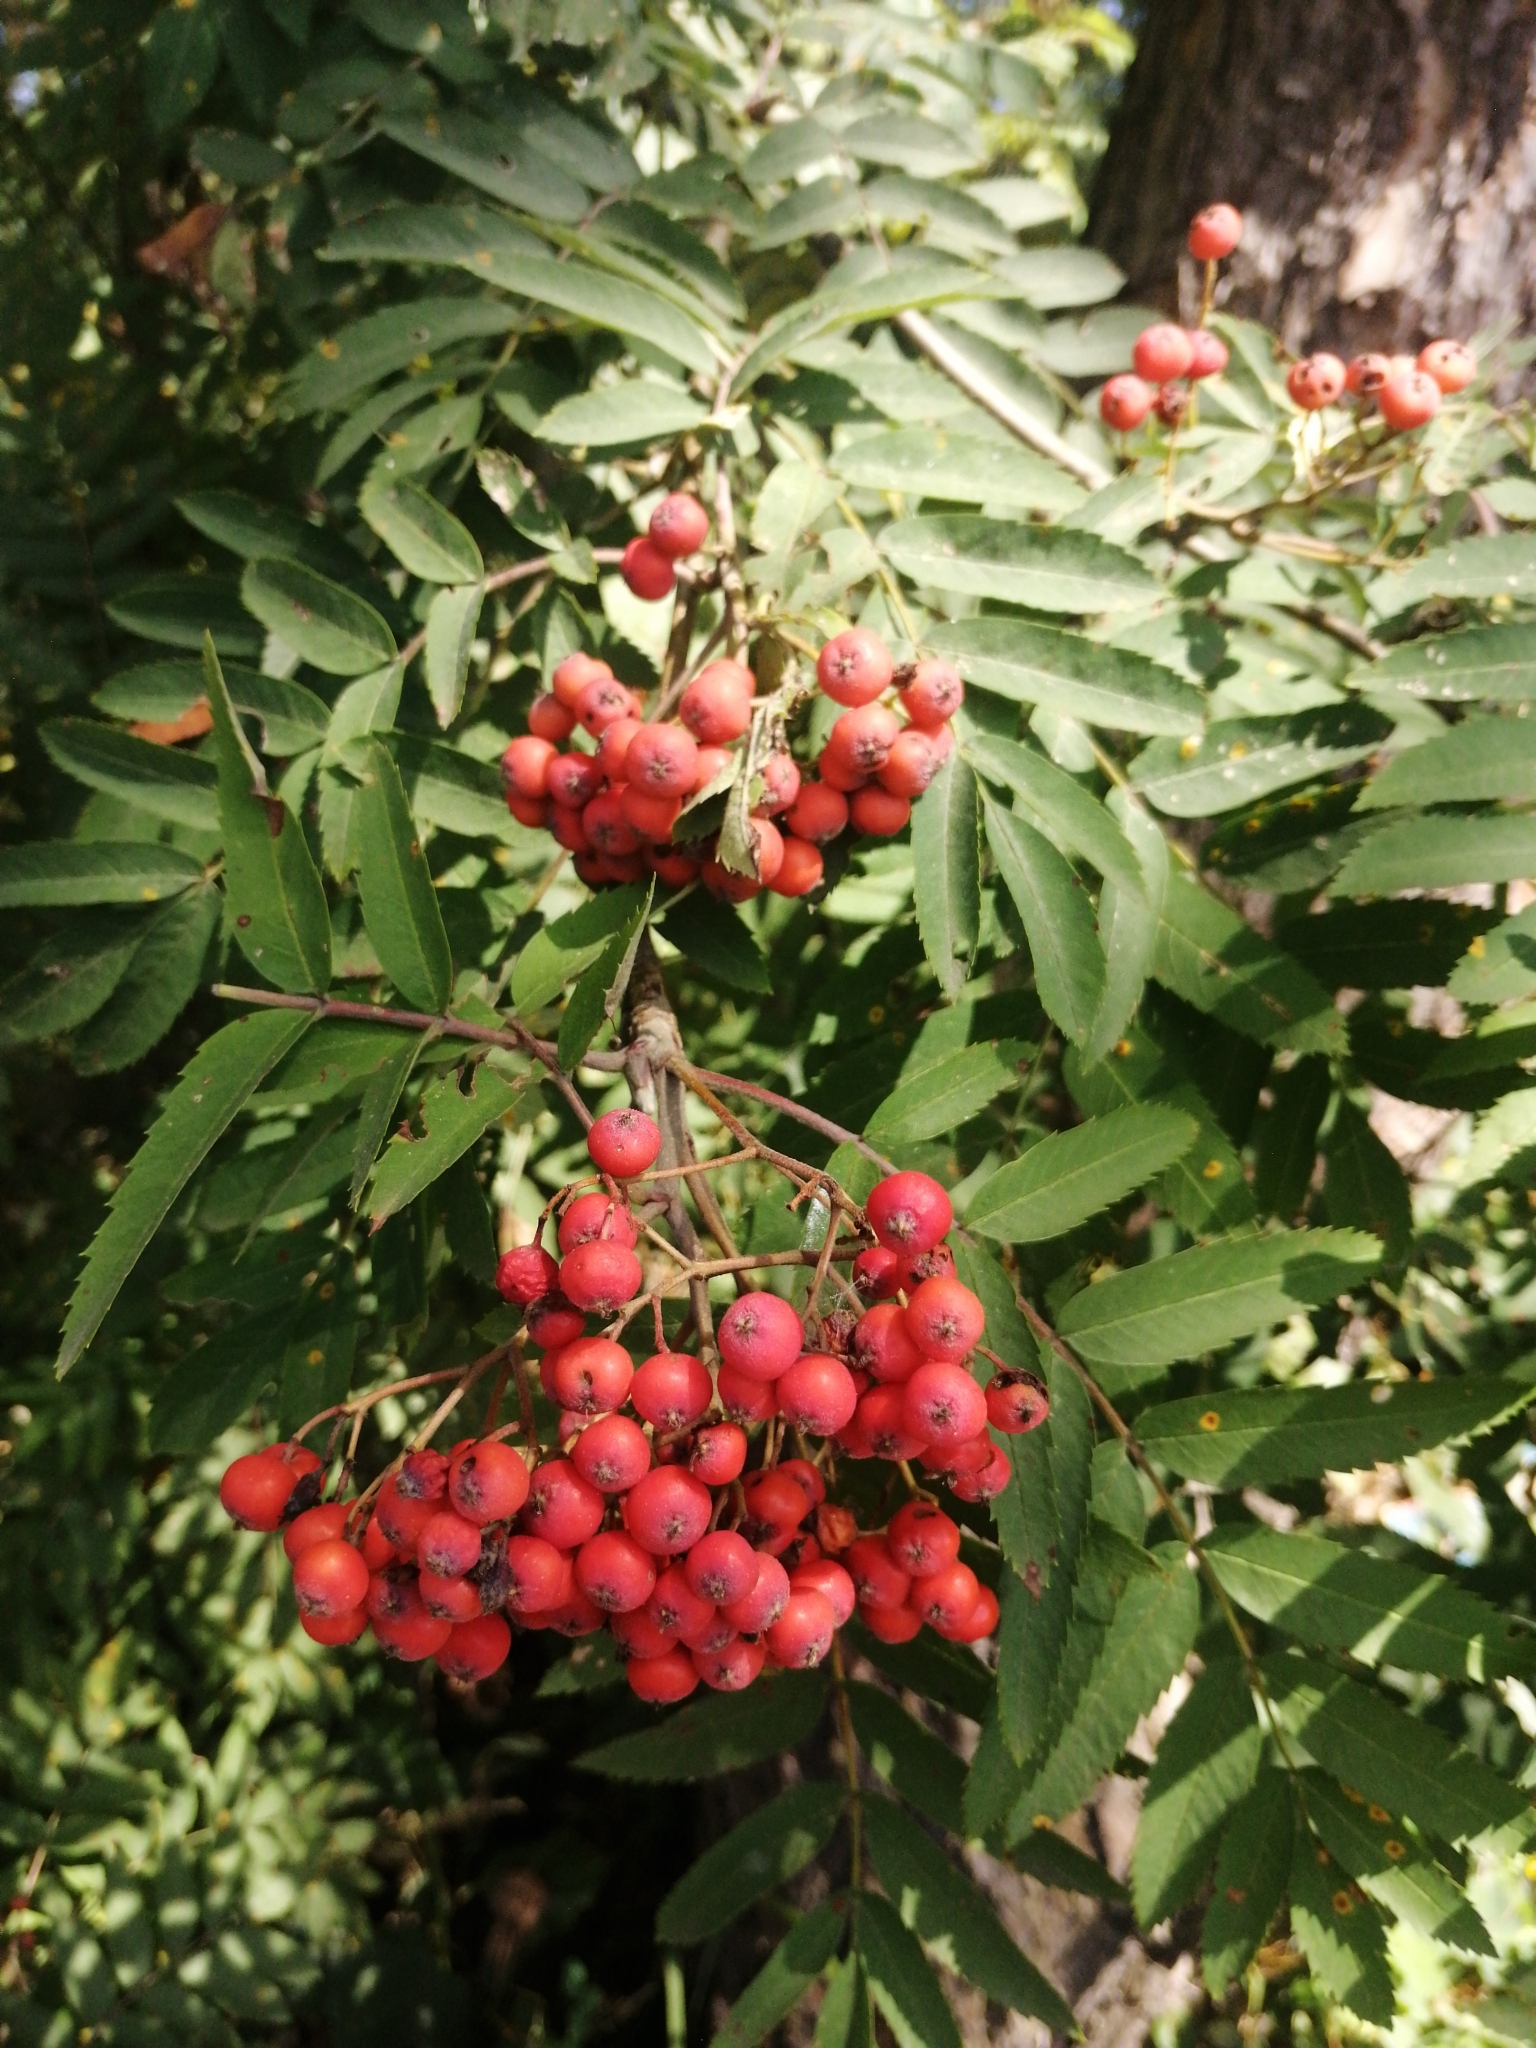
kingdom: Plantae
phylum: Tracheophyta
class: Magnoliopsida
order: Rosales
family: Rosaceae
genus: Sorbus
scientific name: Sorbus aucuparia
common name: Rowan
